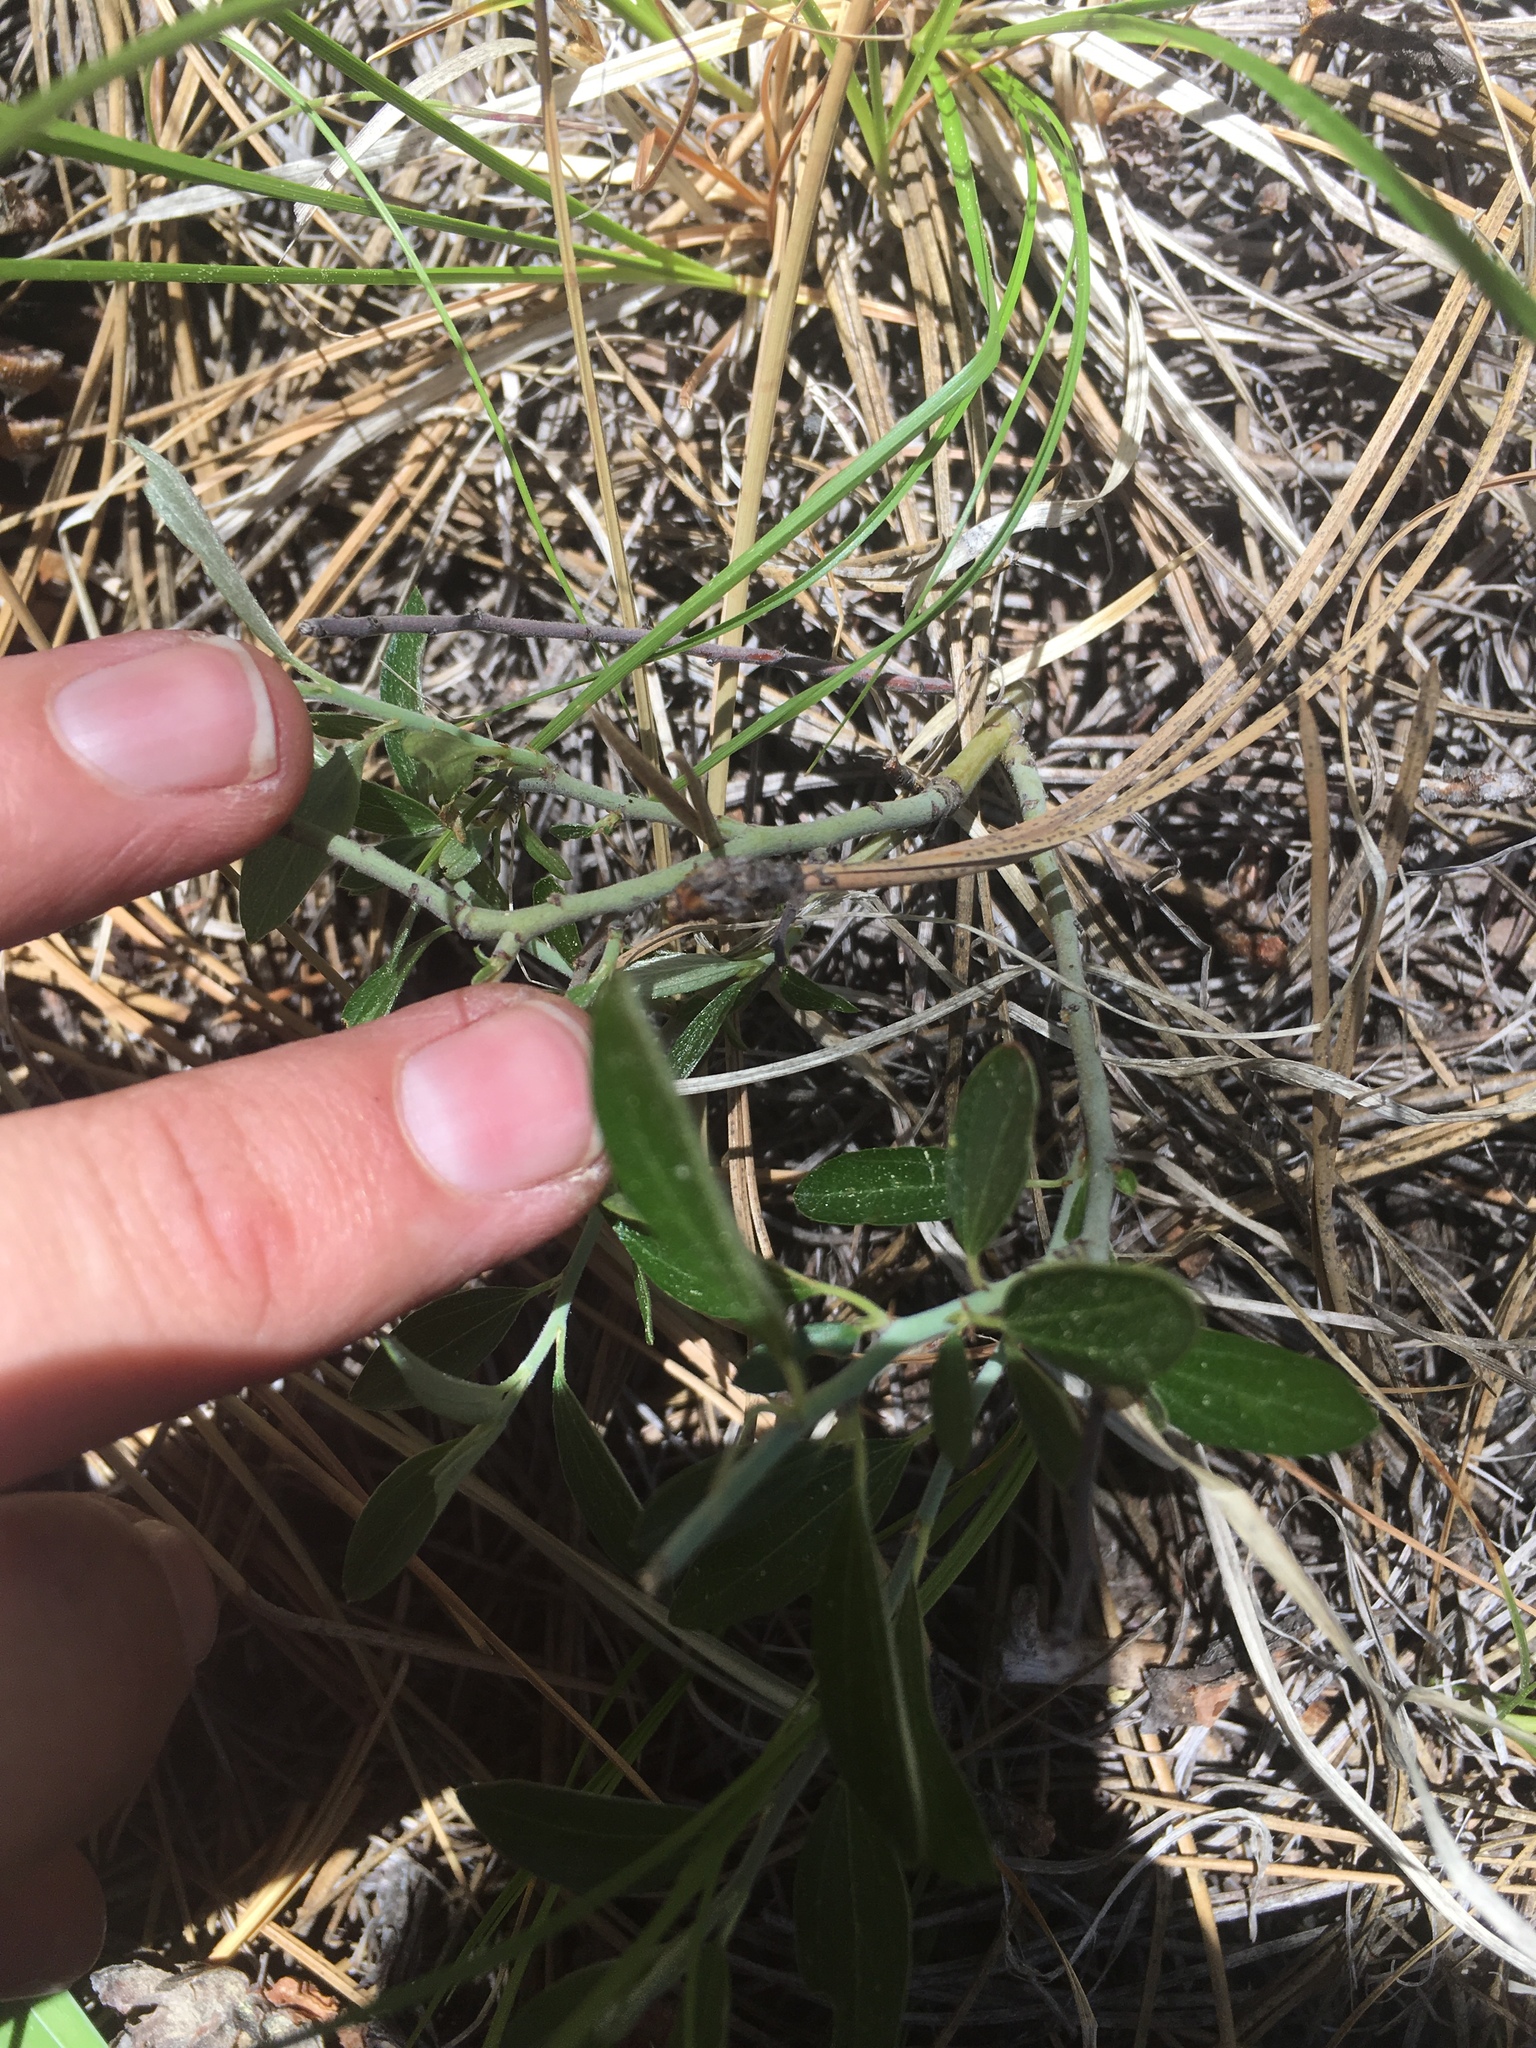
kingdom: Plantae
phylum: Tracheophyta
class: Magnoliopsida
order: Rosales
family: Rhamnaceae
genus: Ceanothus
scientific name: Ceanothus fendleri
